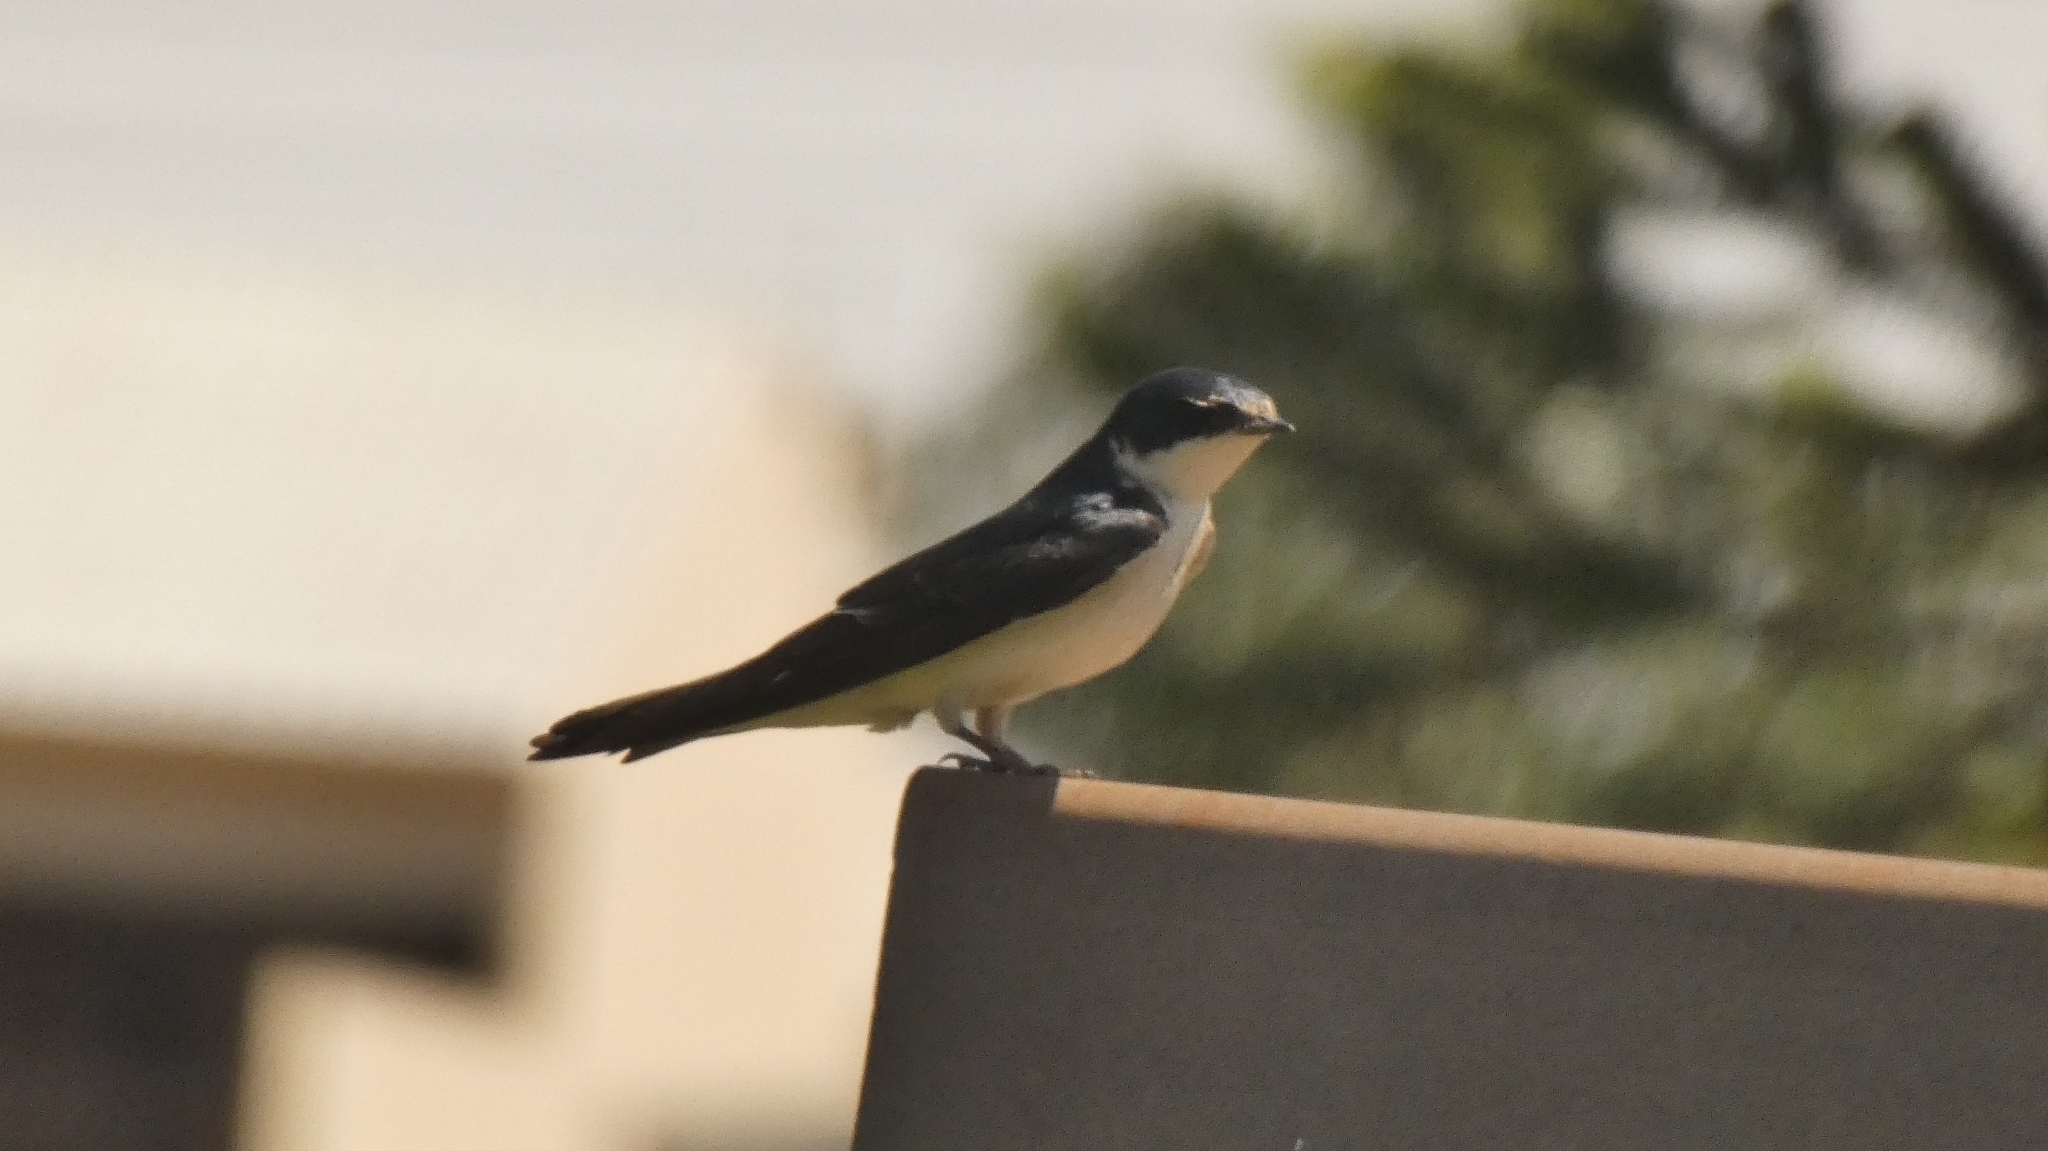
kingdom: Animalia
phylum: Chordata
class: Aves
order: Passeriformes
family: Hirundinidae
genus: Tachycineta
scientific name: Tachycineta leucorrhoa
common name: White-rumped swallow
